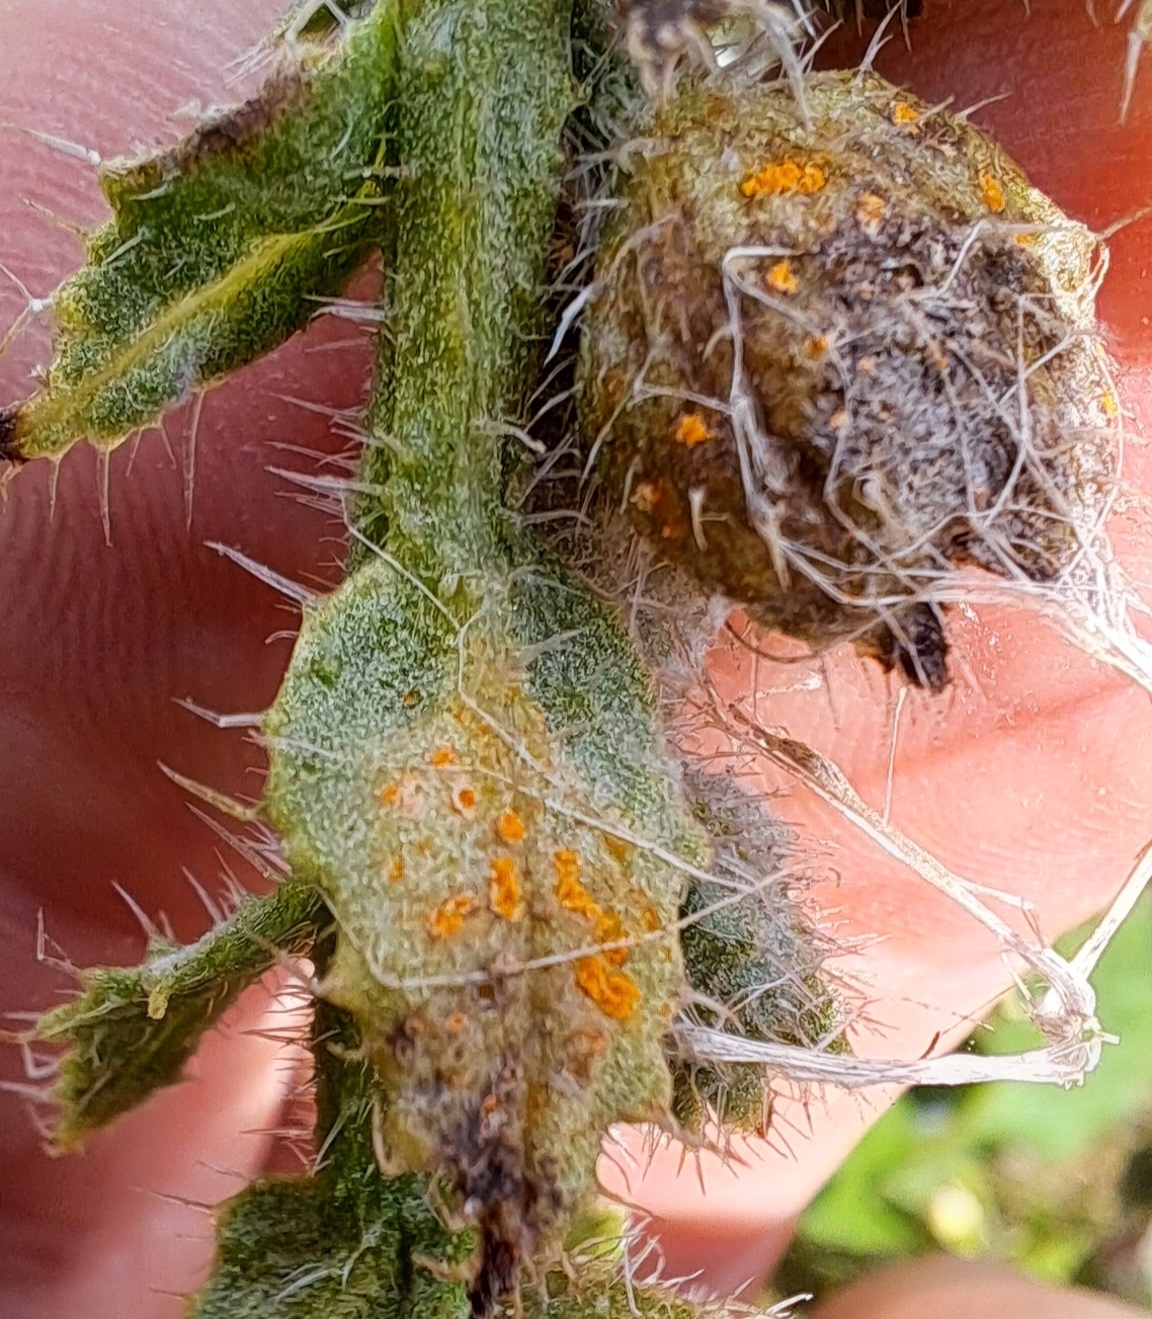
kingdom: Fungi
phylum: Basidiomycota
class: Pucciniomycetes
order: Pucciniales
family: Pucciniaceae
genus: Puccinia
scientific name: Puccinia bromina
